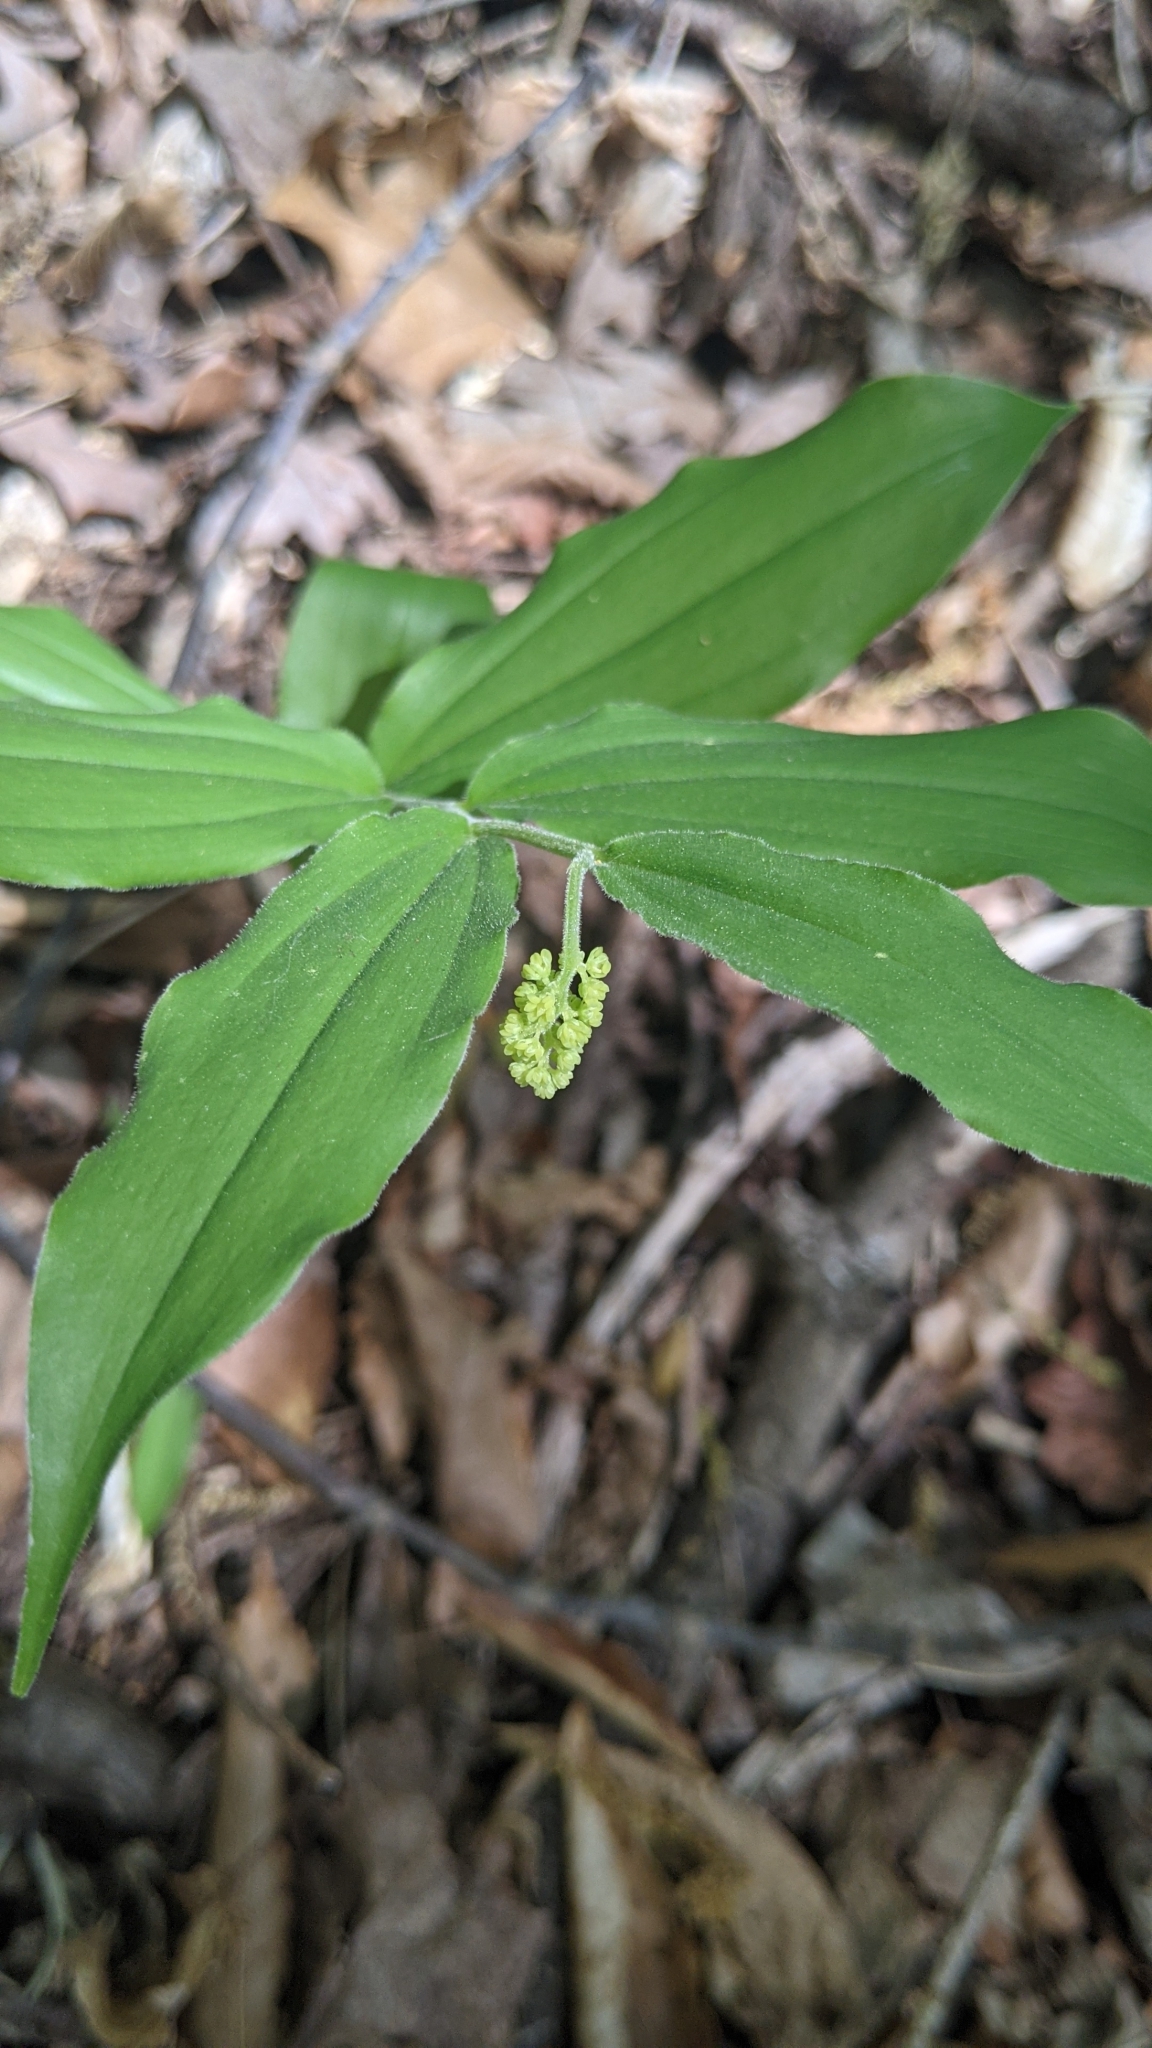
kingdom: Plantae
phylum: Tracheophyta
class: Liliopsida
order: Asparagales
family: Asparagaceae
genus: Maianthemum
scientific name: Maianthemum racemosum
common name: False spikenard
